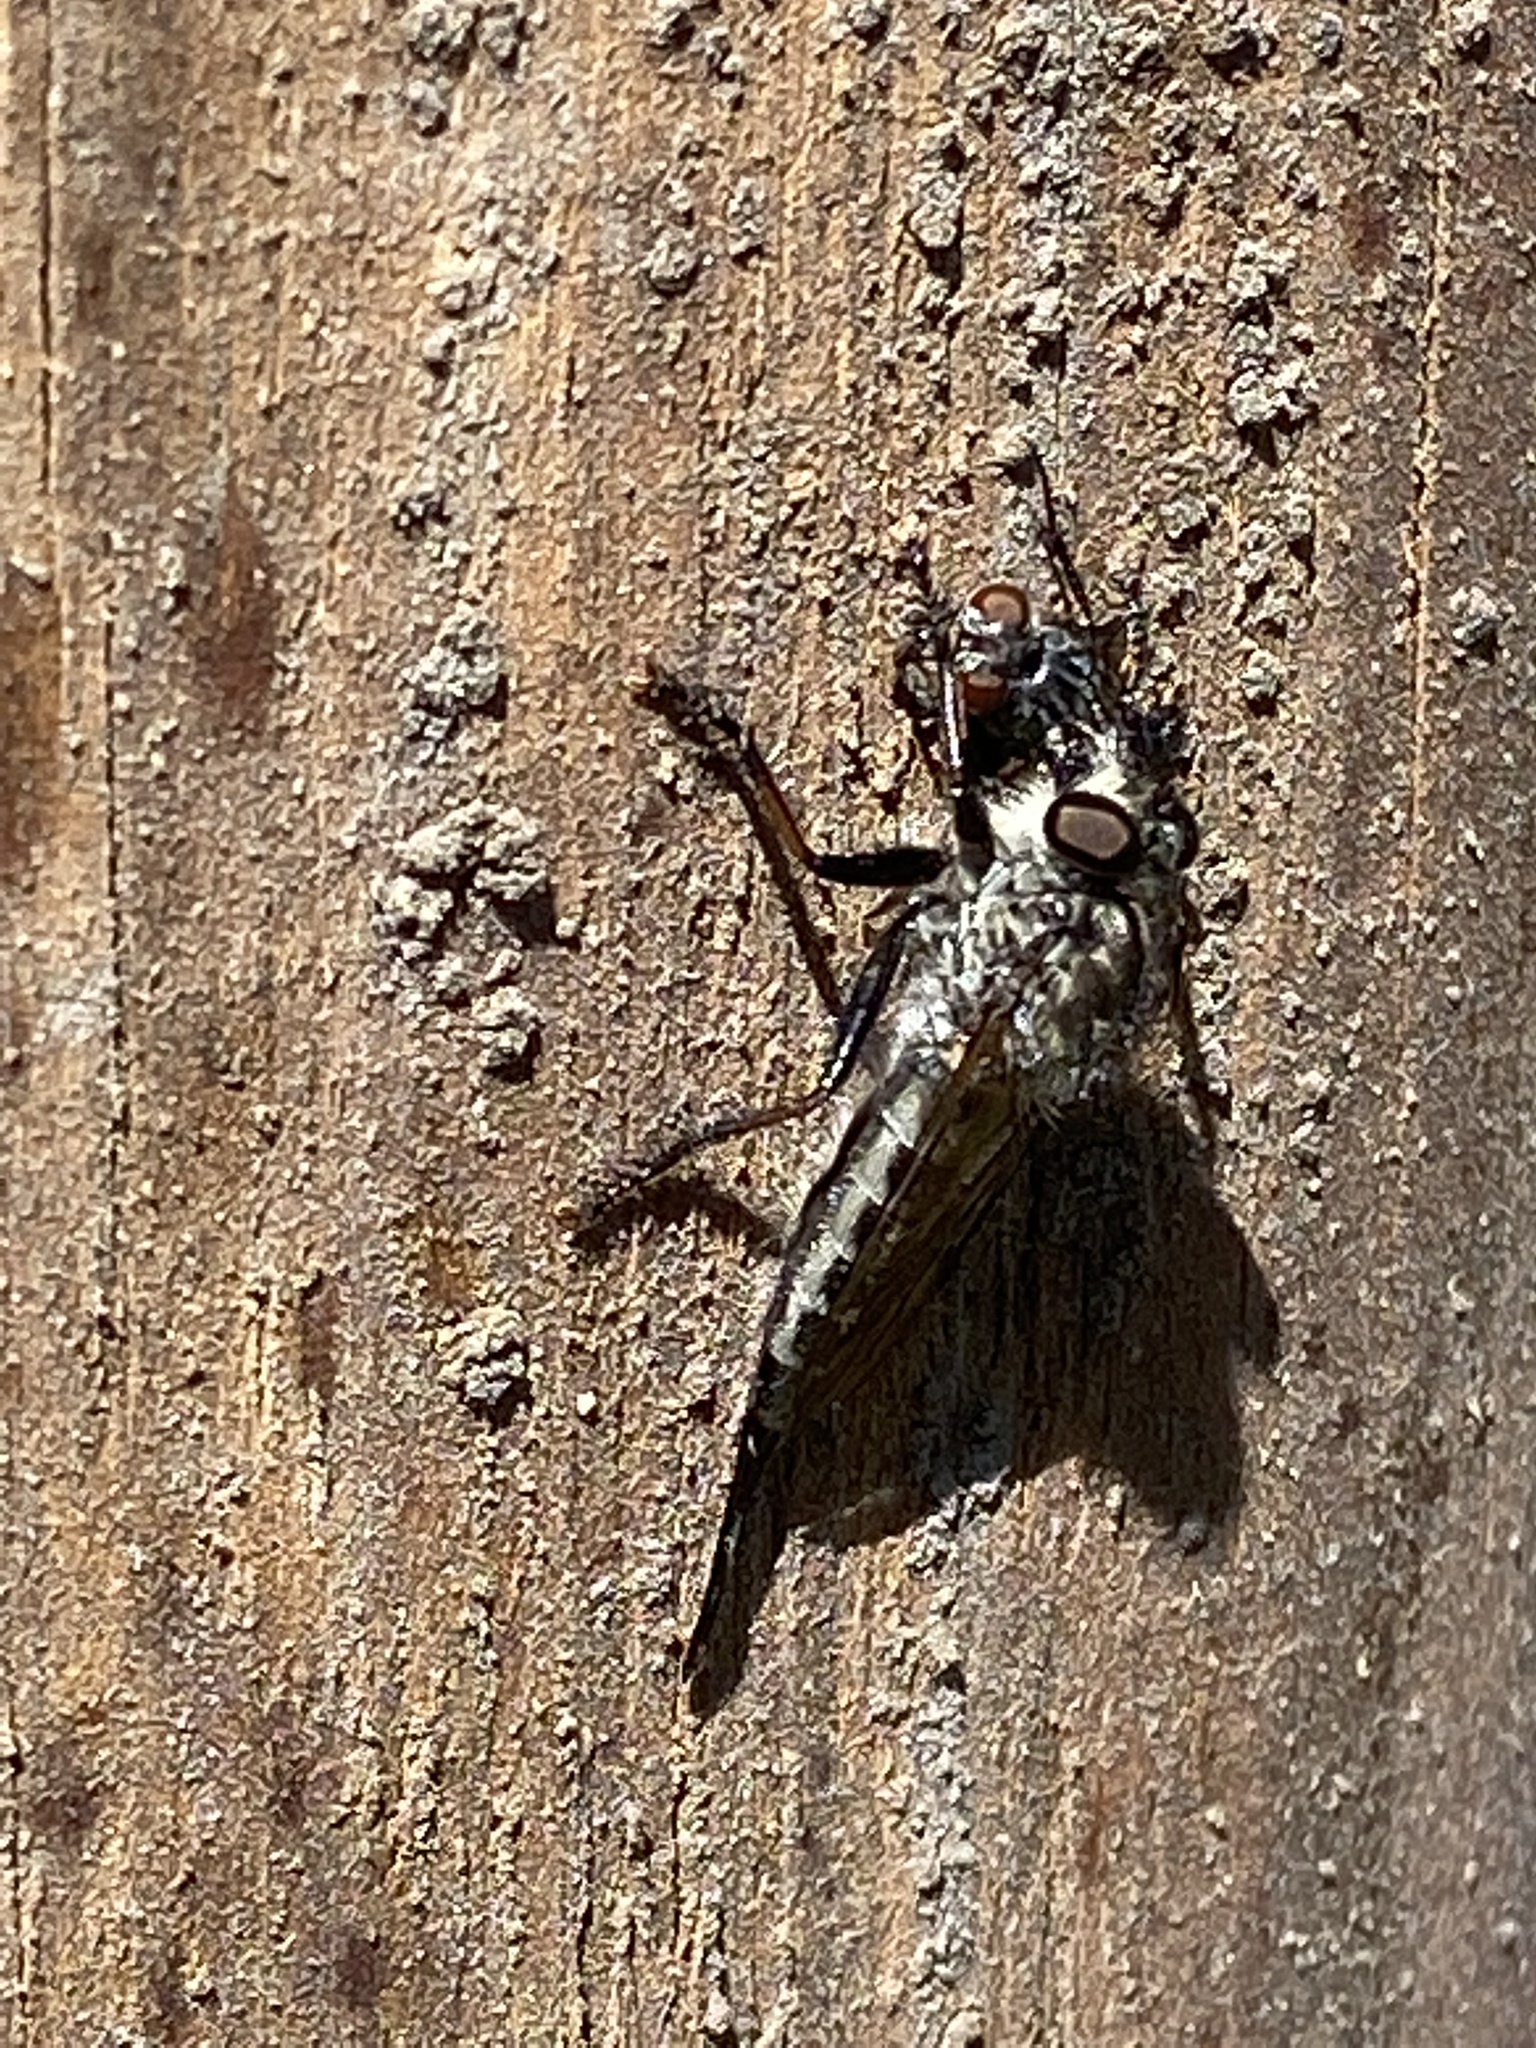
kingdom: Animalia
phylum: Arthropoda
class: Insecta
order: Diptera
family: Asilidae
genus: Efferia
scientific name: Efferia aestuans
